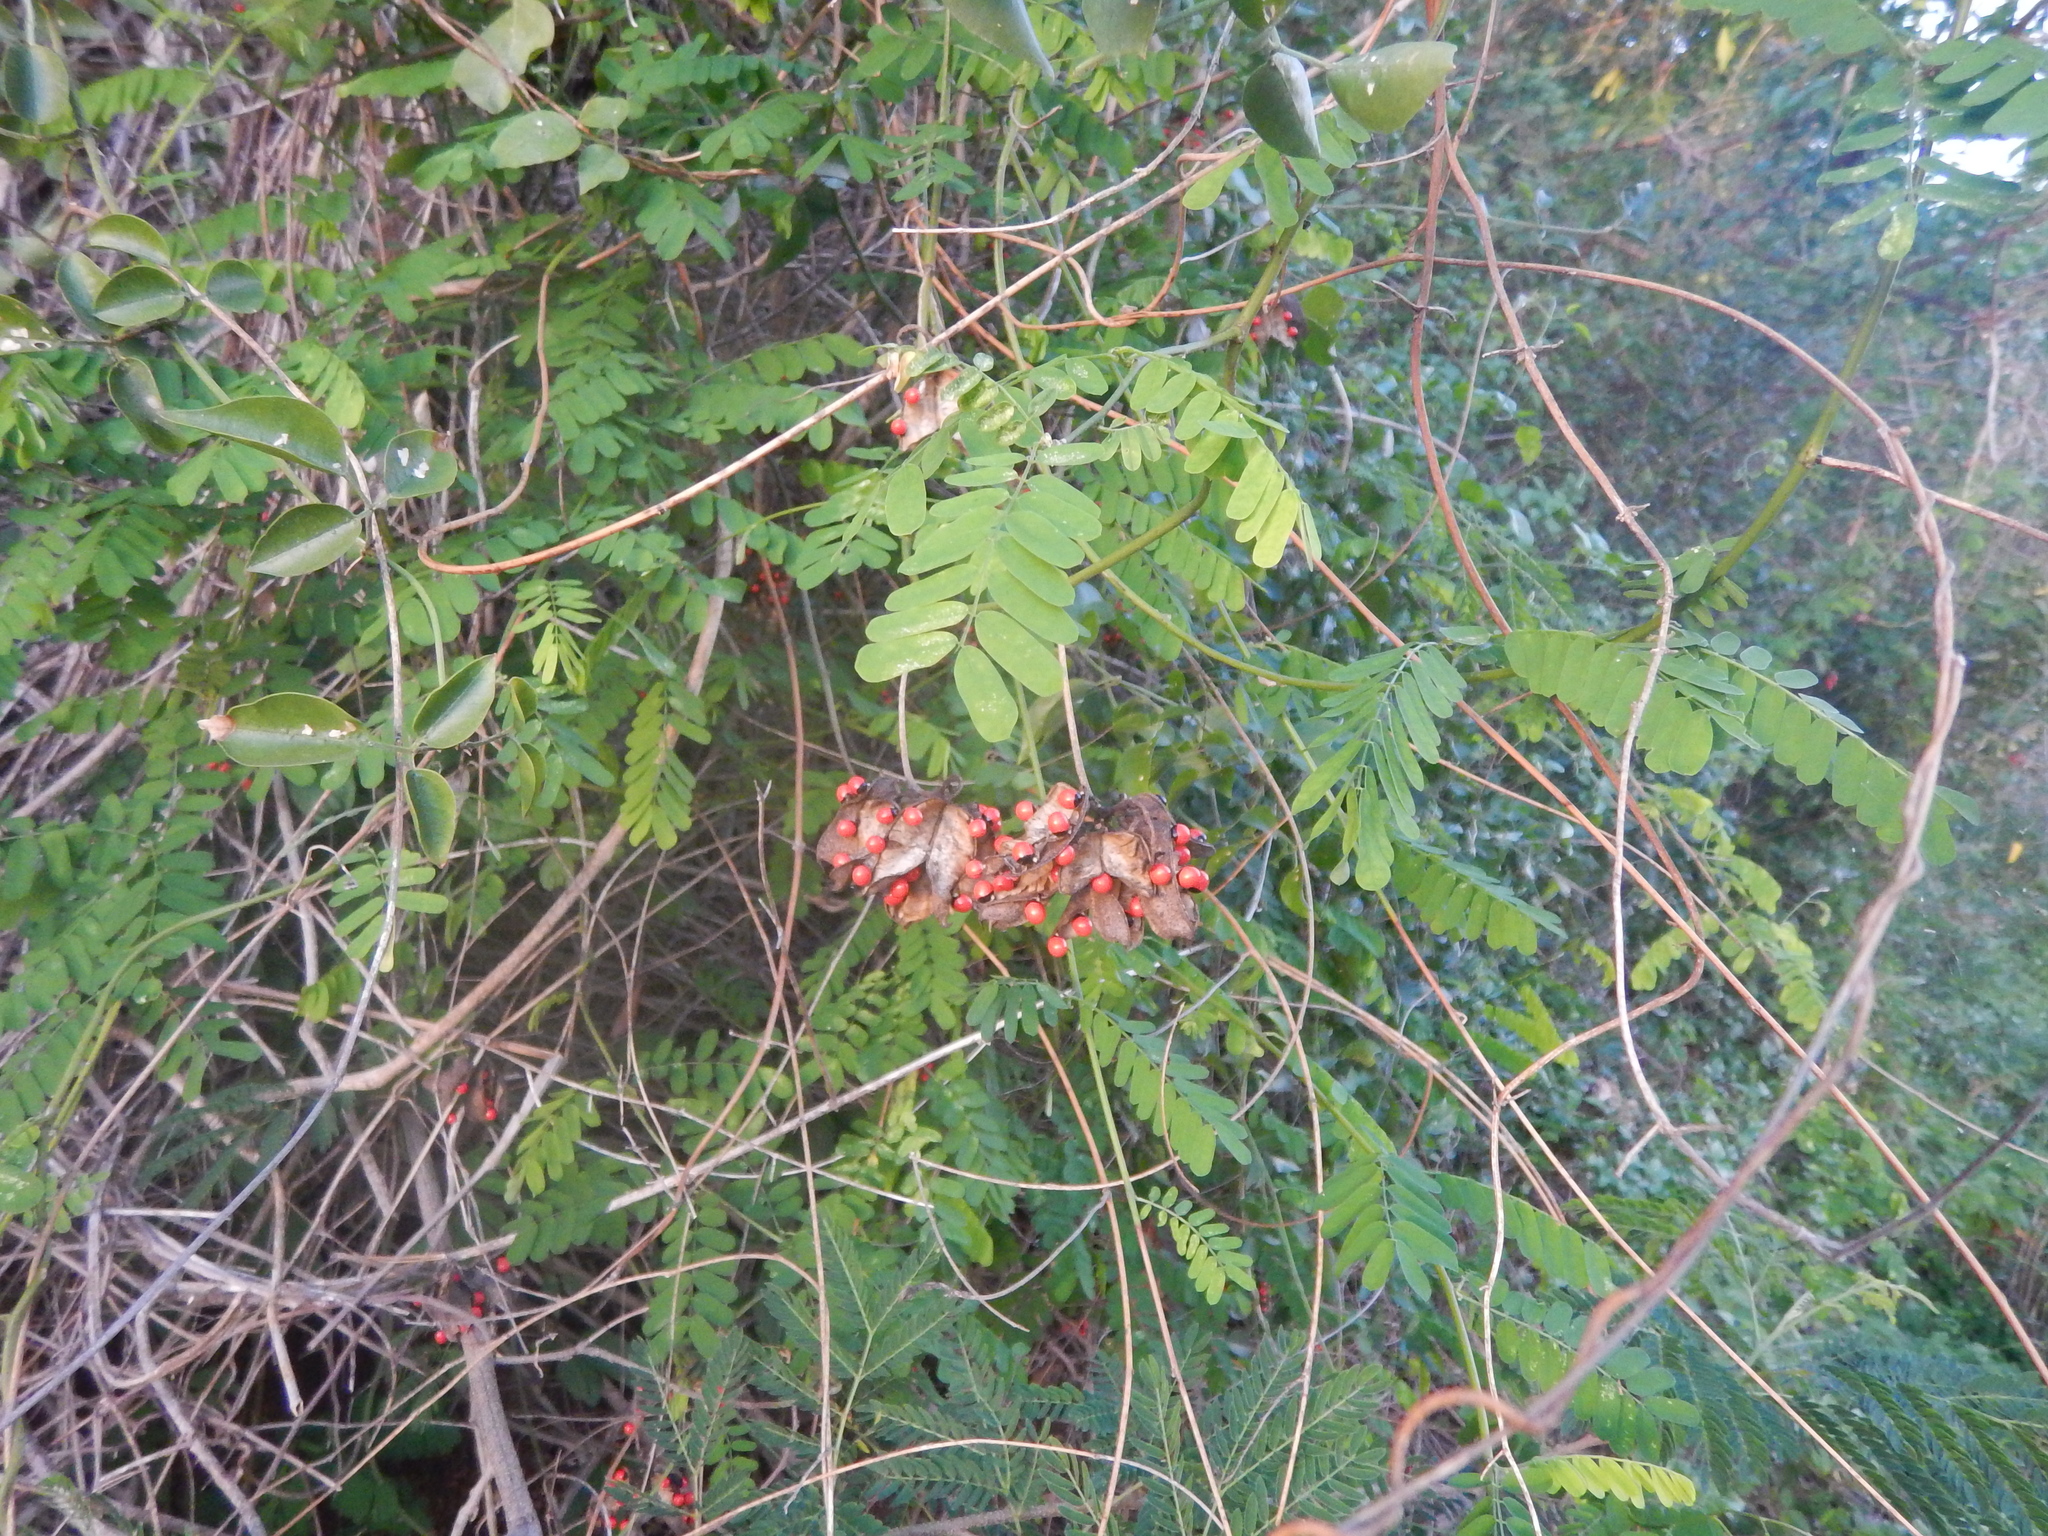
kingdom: Plantae
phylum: Tracheophyta
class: Magnoliopsida
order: Fabales
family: Fabaceae
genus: Abrus
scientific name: Abrus precatorius
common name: Rosarypea
